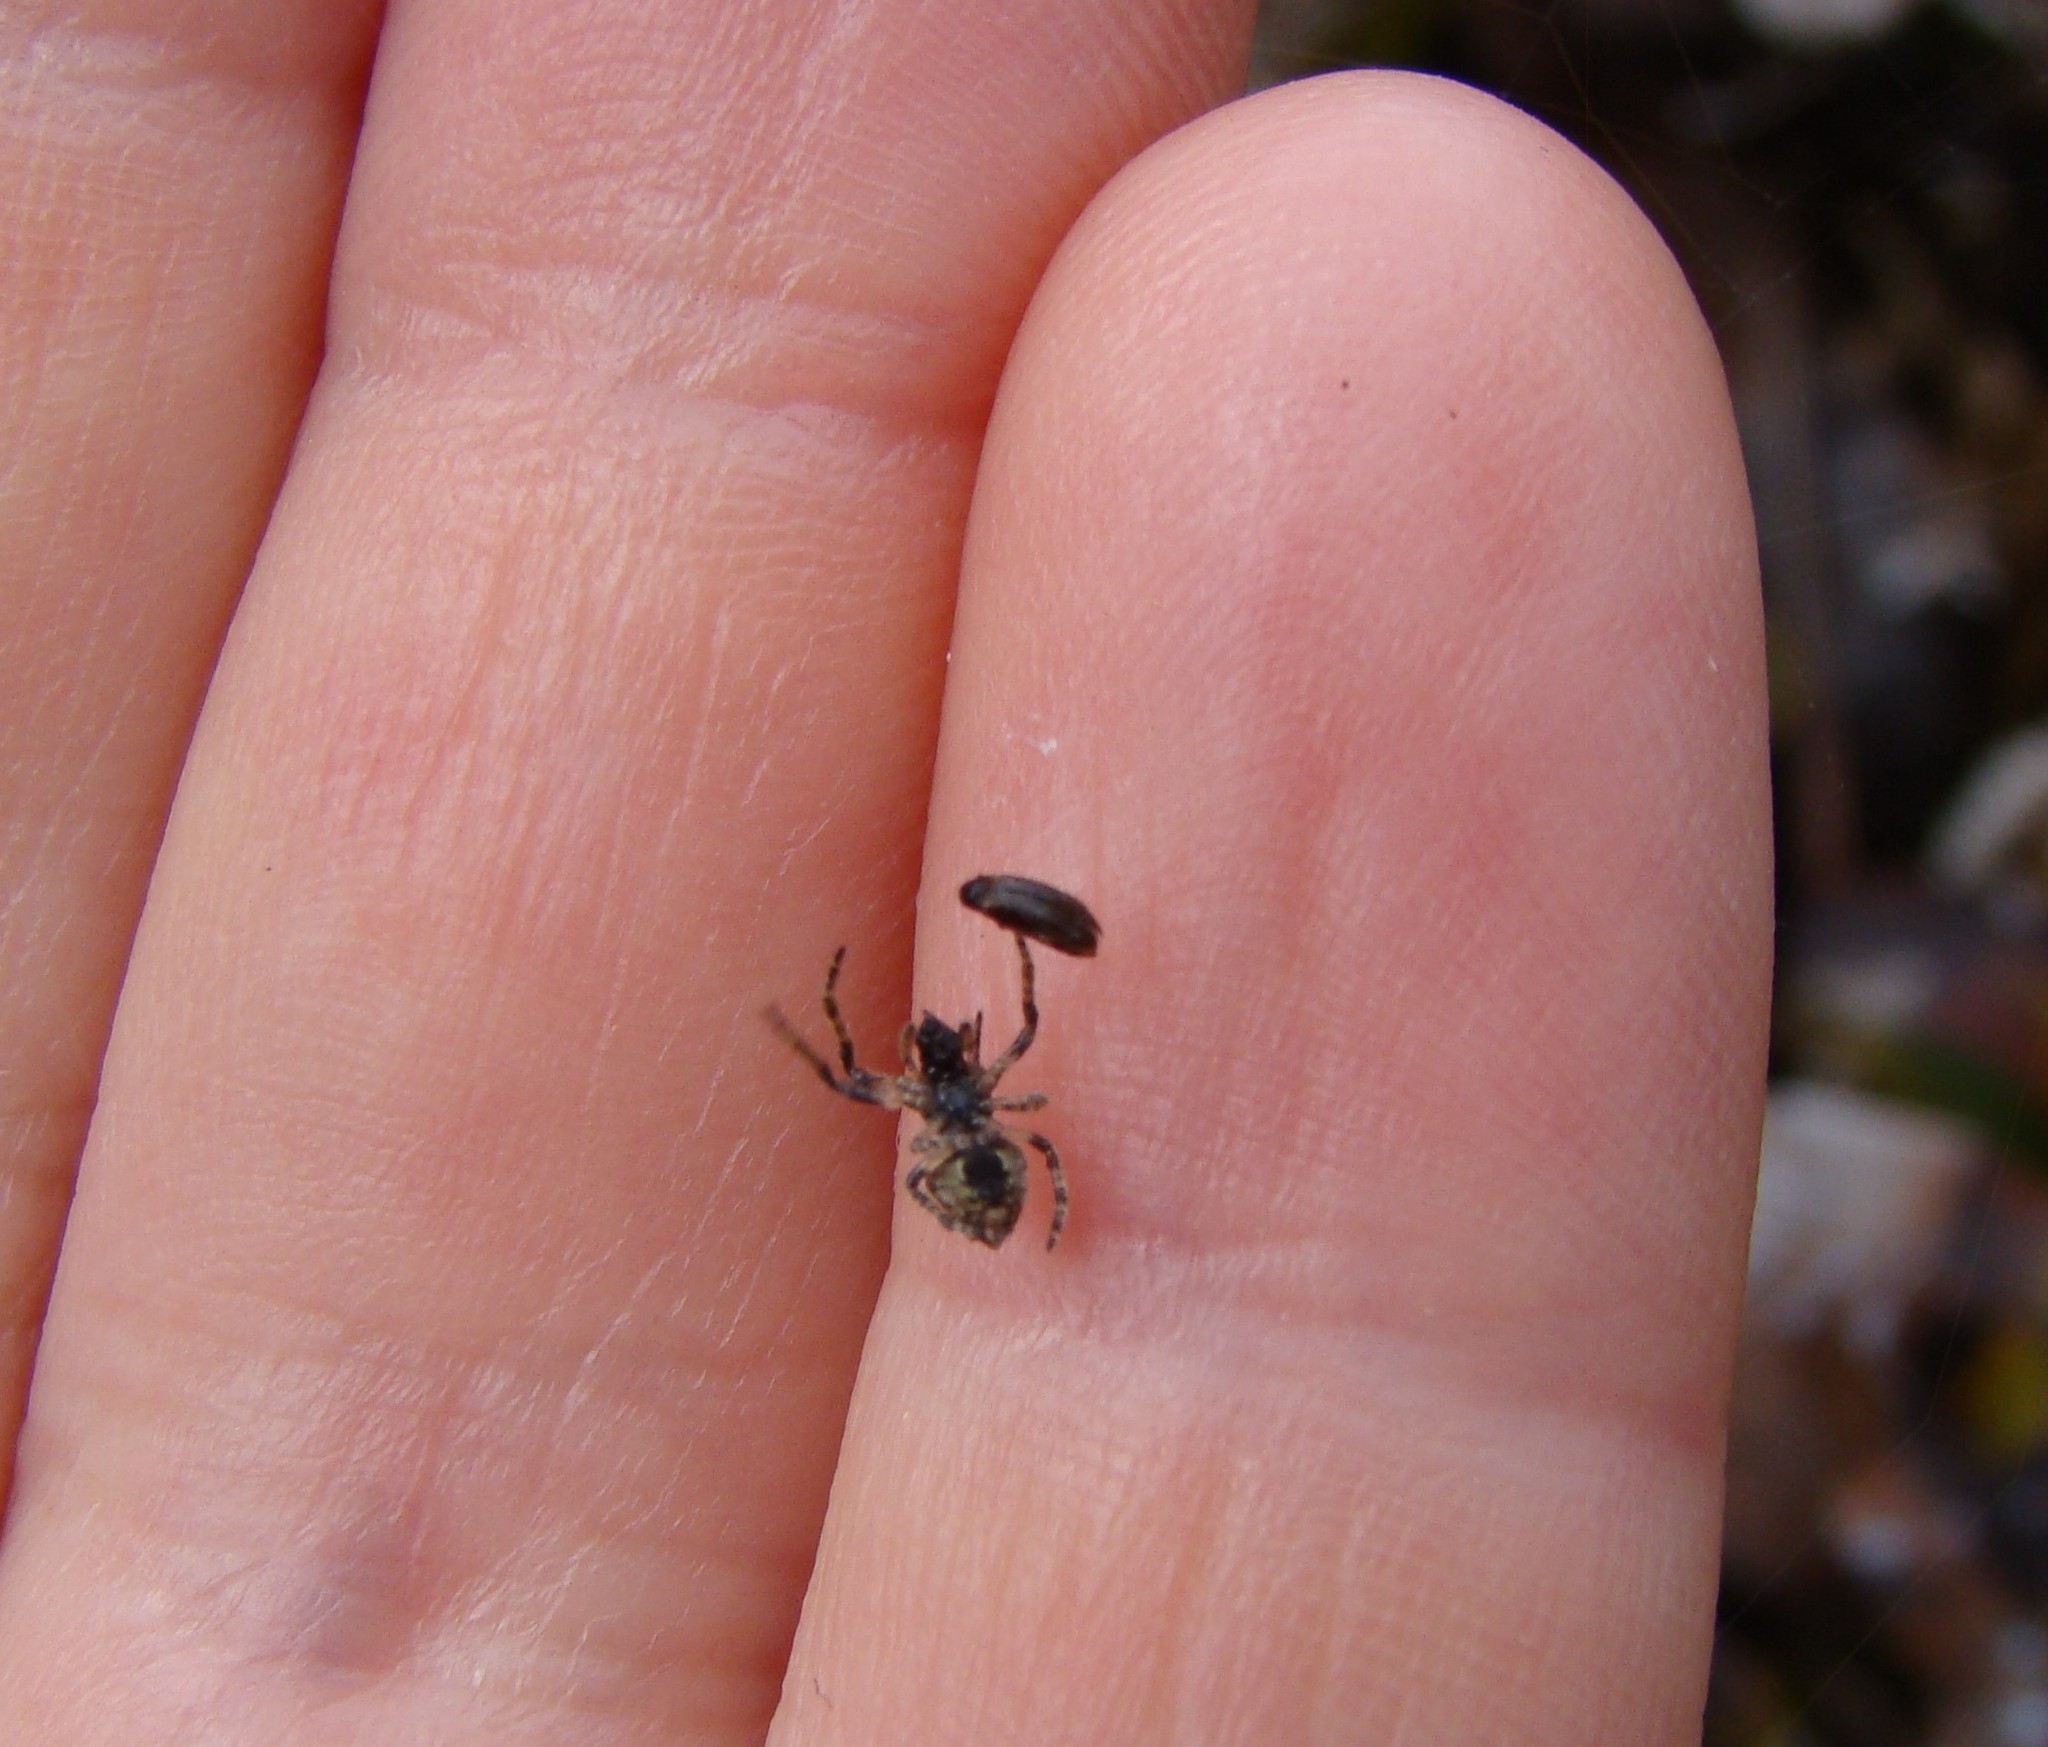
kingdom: Animalia
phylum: Arthropoda
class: Arachnida
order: Araneae
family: Araneidae
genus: Eriophora
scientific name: Eriophora pustulosa
